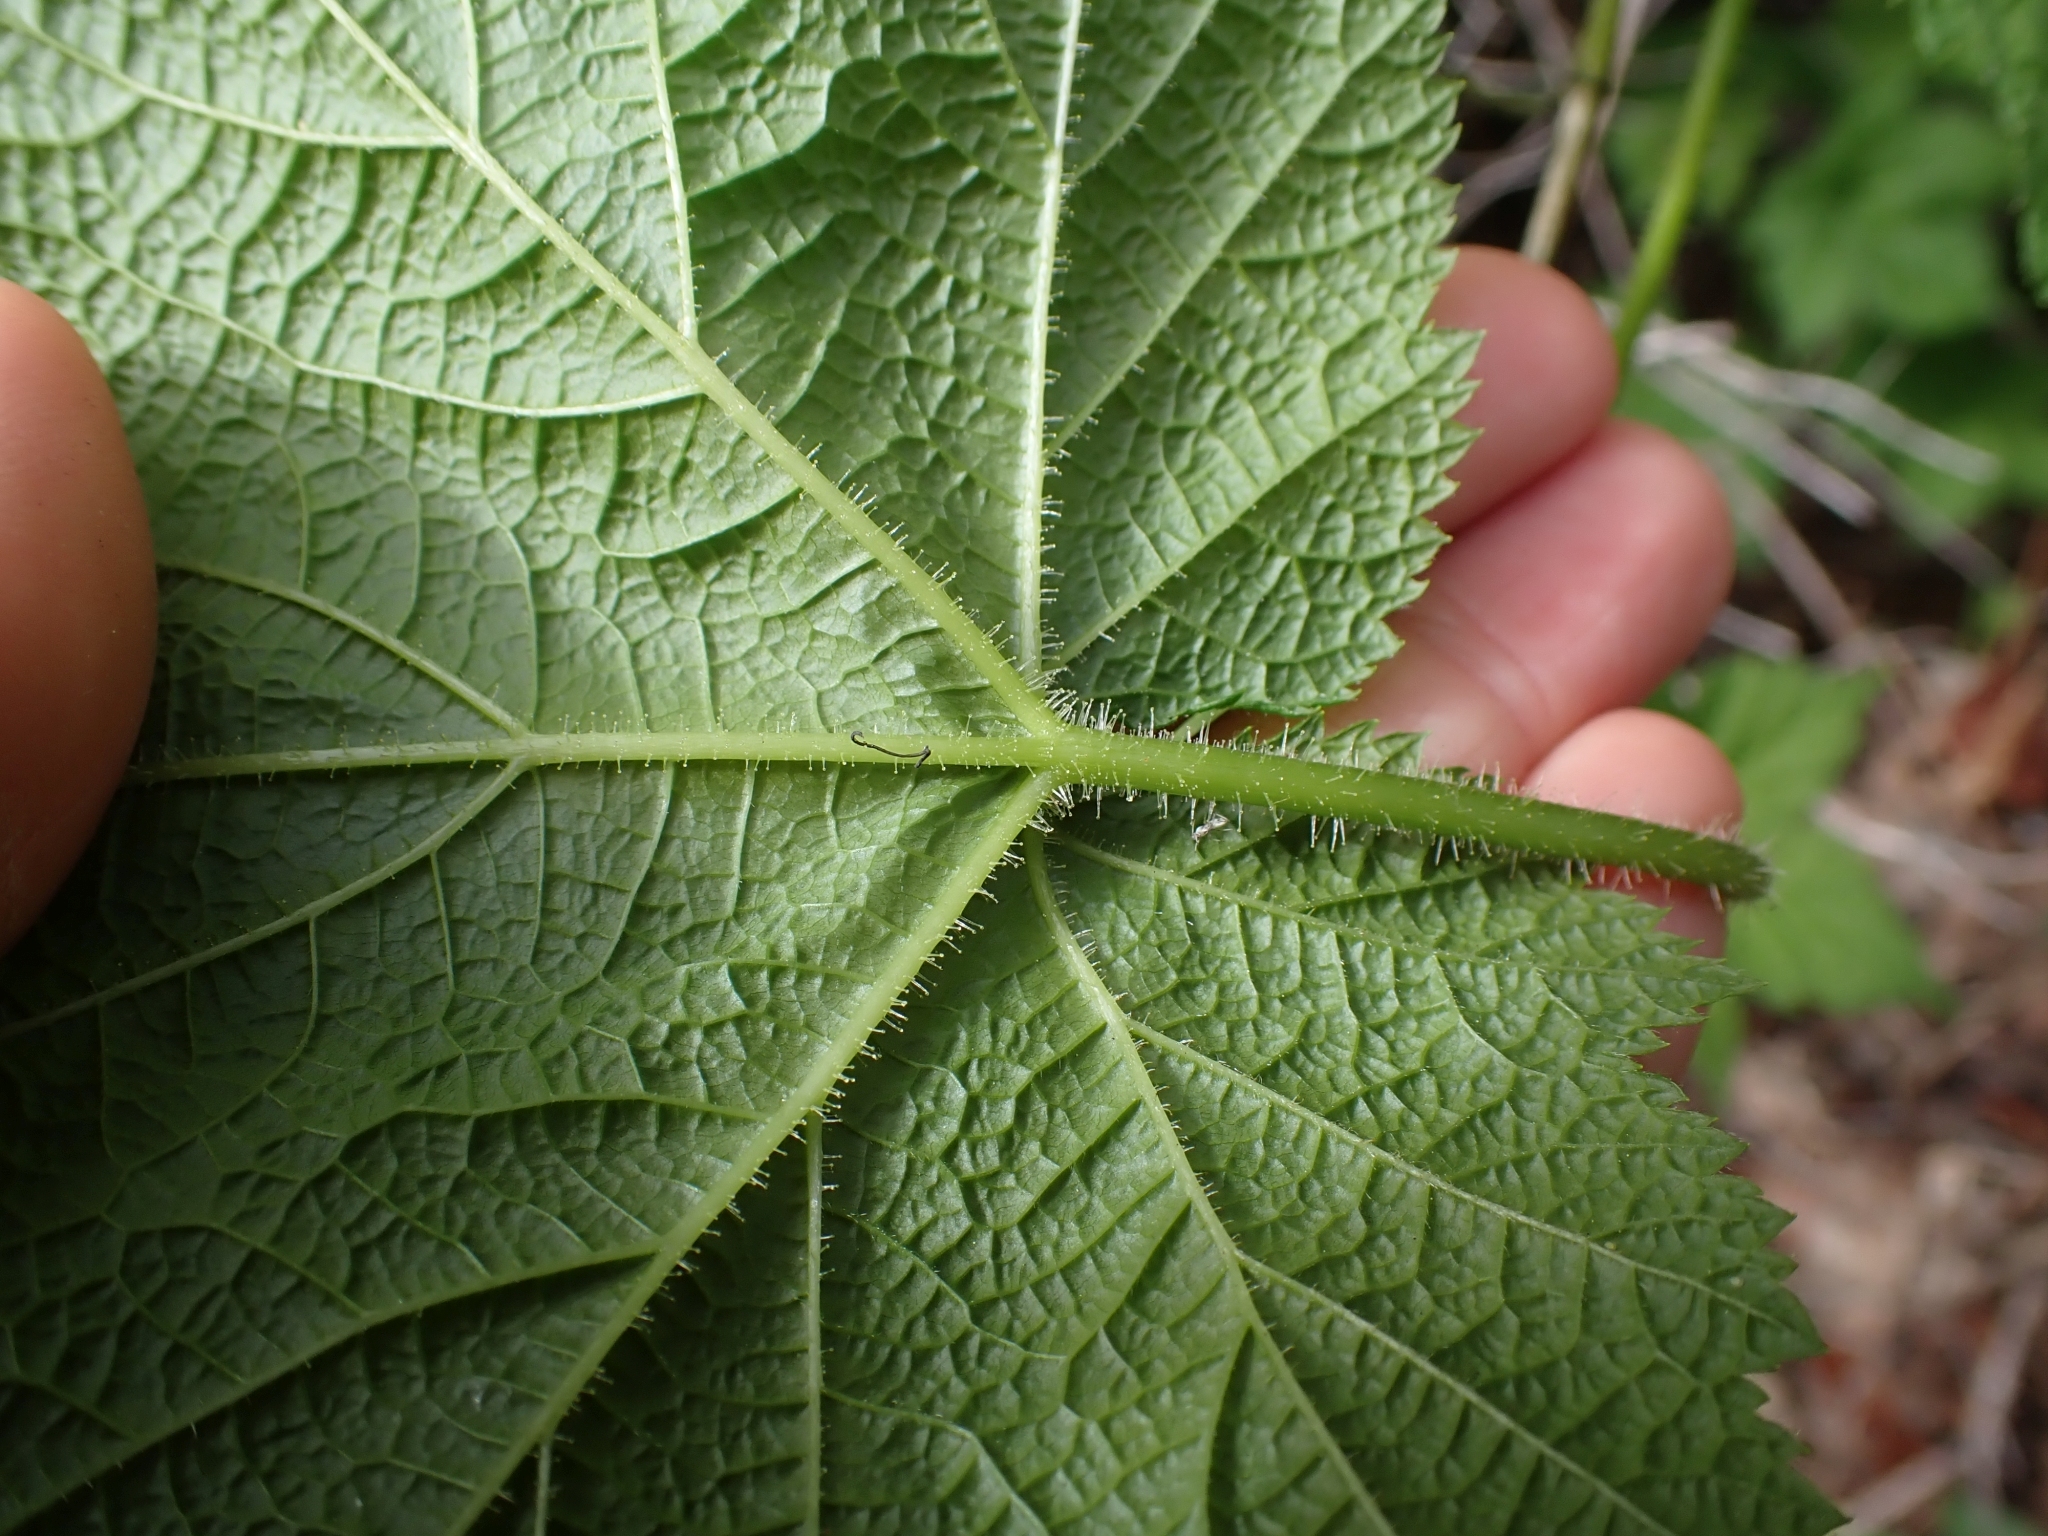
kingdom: Plantae
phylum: Tracheophyta
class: Magnoliopsida
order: Rosales
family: Rosaceae
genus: Rubus
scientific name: Rubus parviflorus
